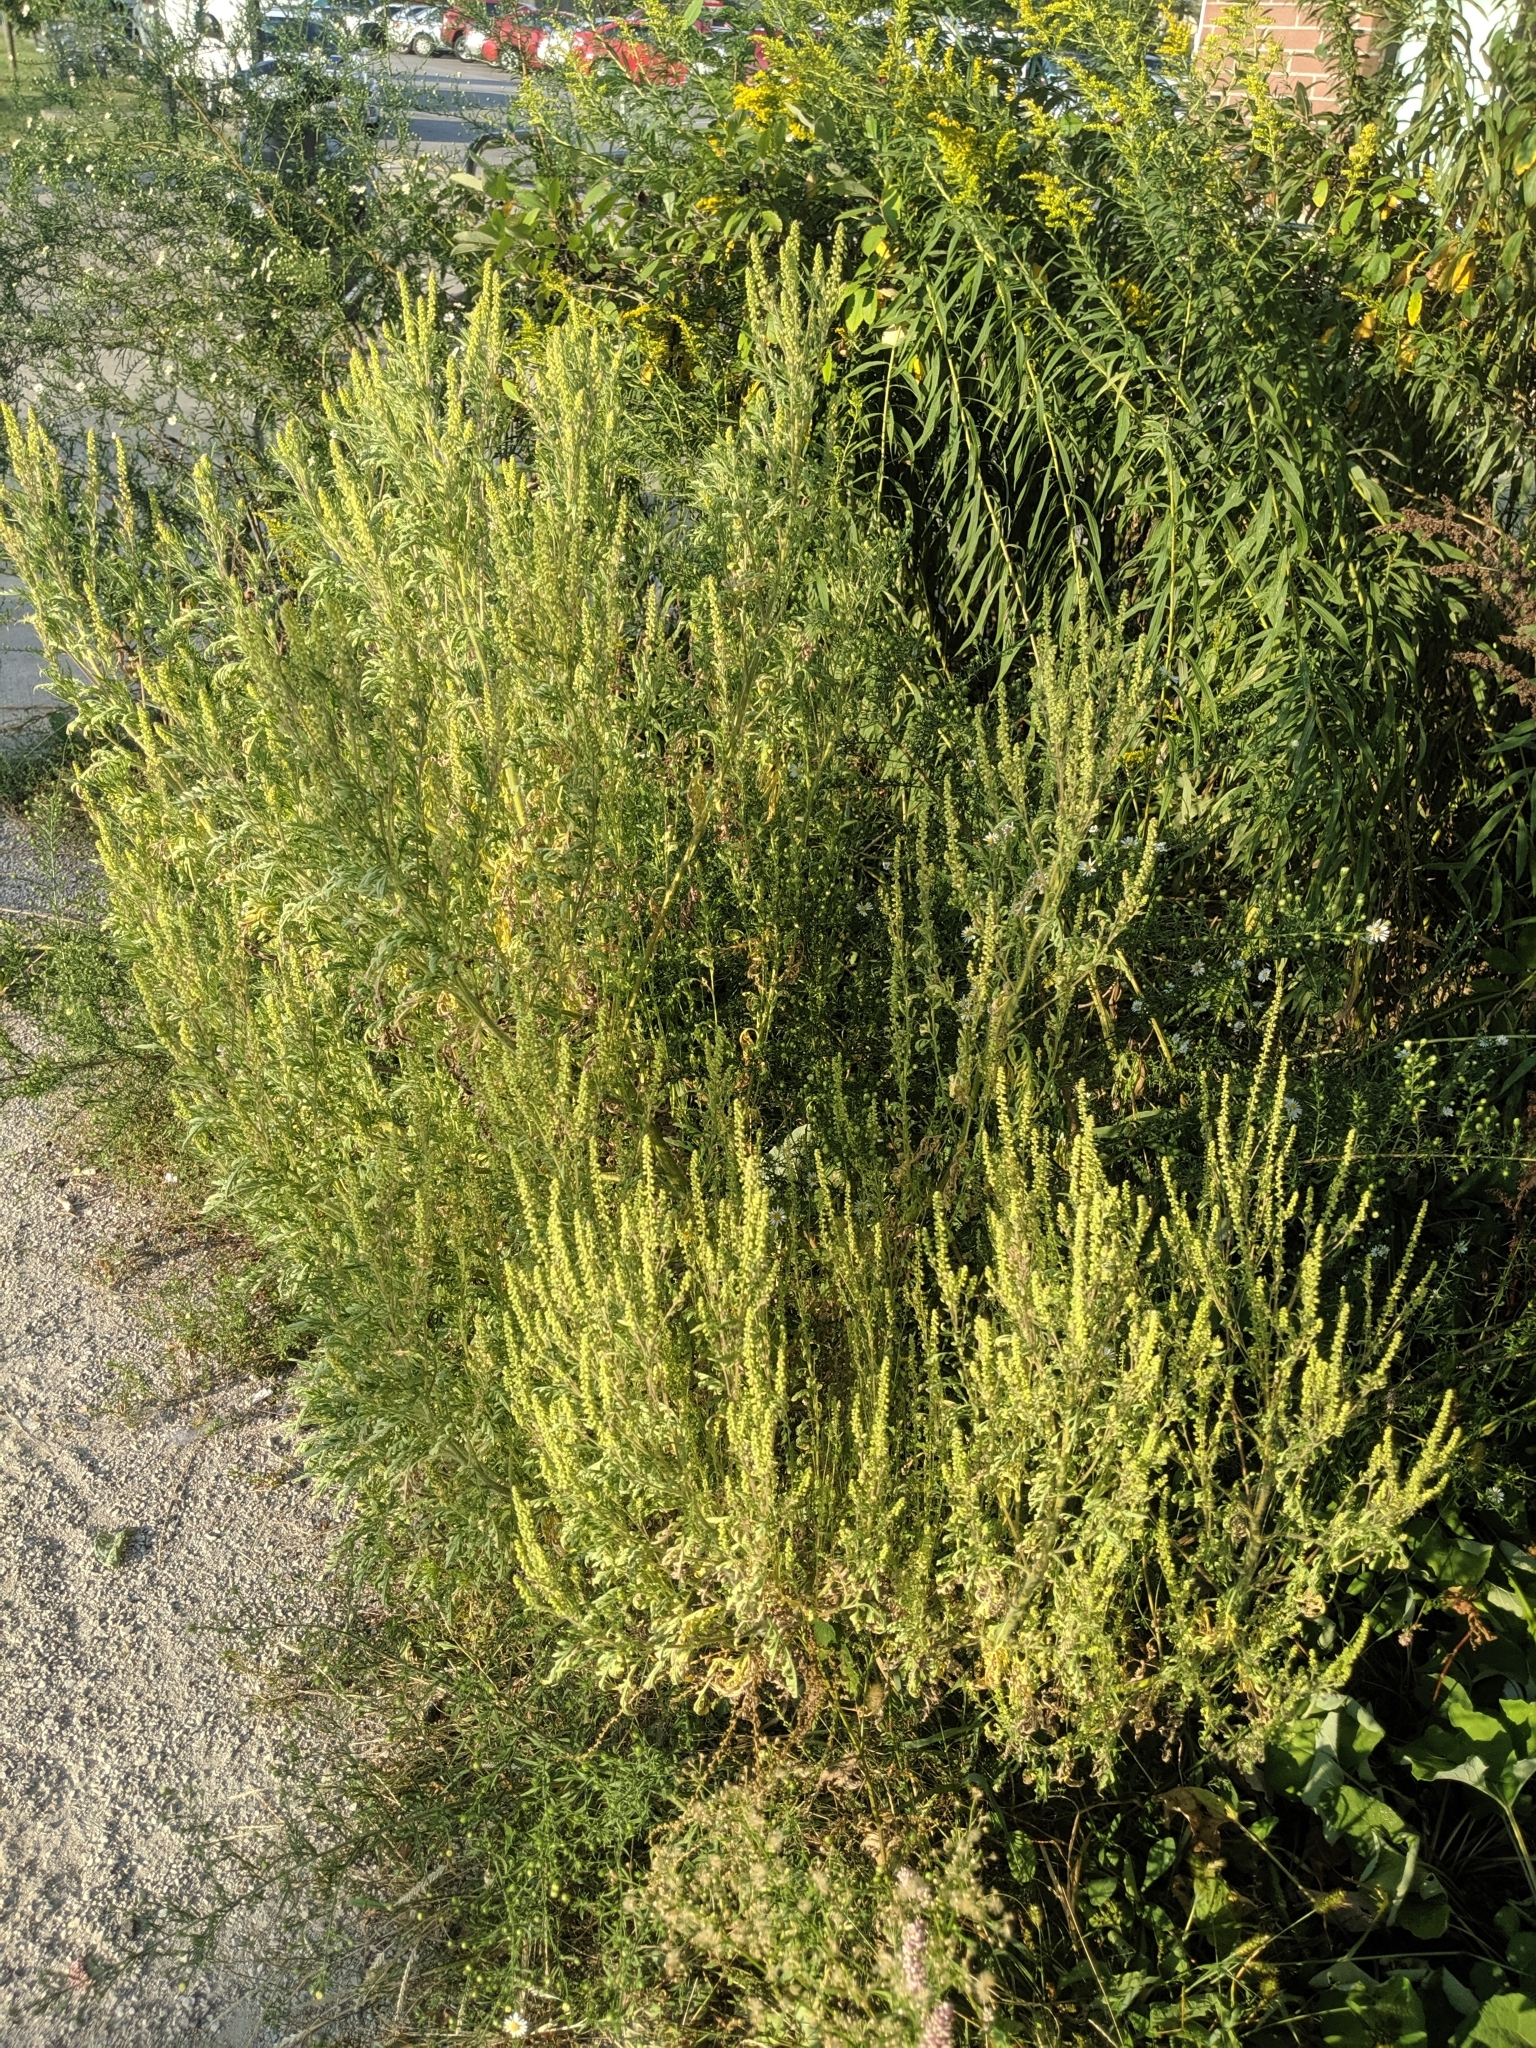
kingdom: Plantae
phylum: Tracheophyta
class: Magnoliopsida
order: Asterales
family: Asteraceae
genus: Ambrosia
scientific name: Ambrosia artemisiifolia
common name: Annual ragweed
